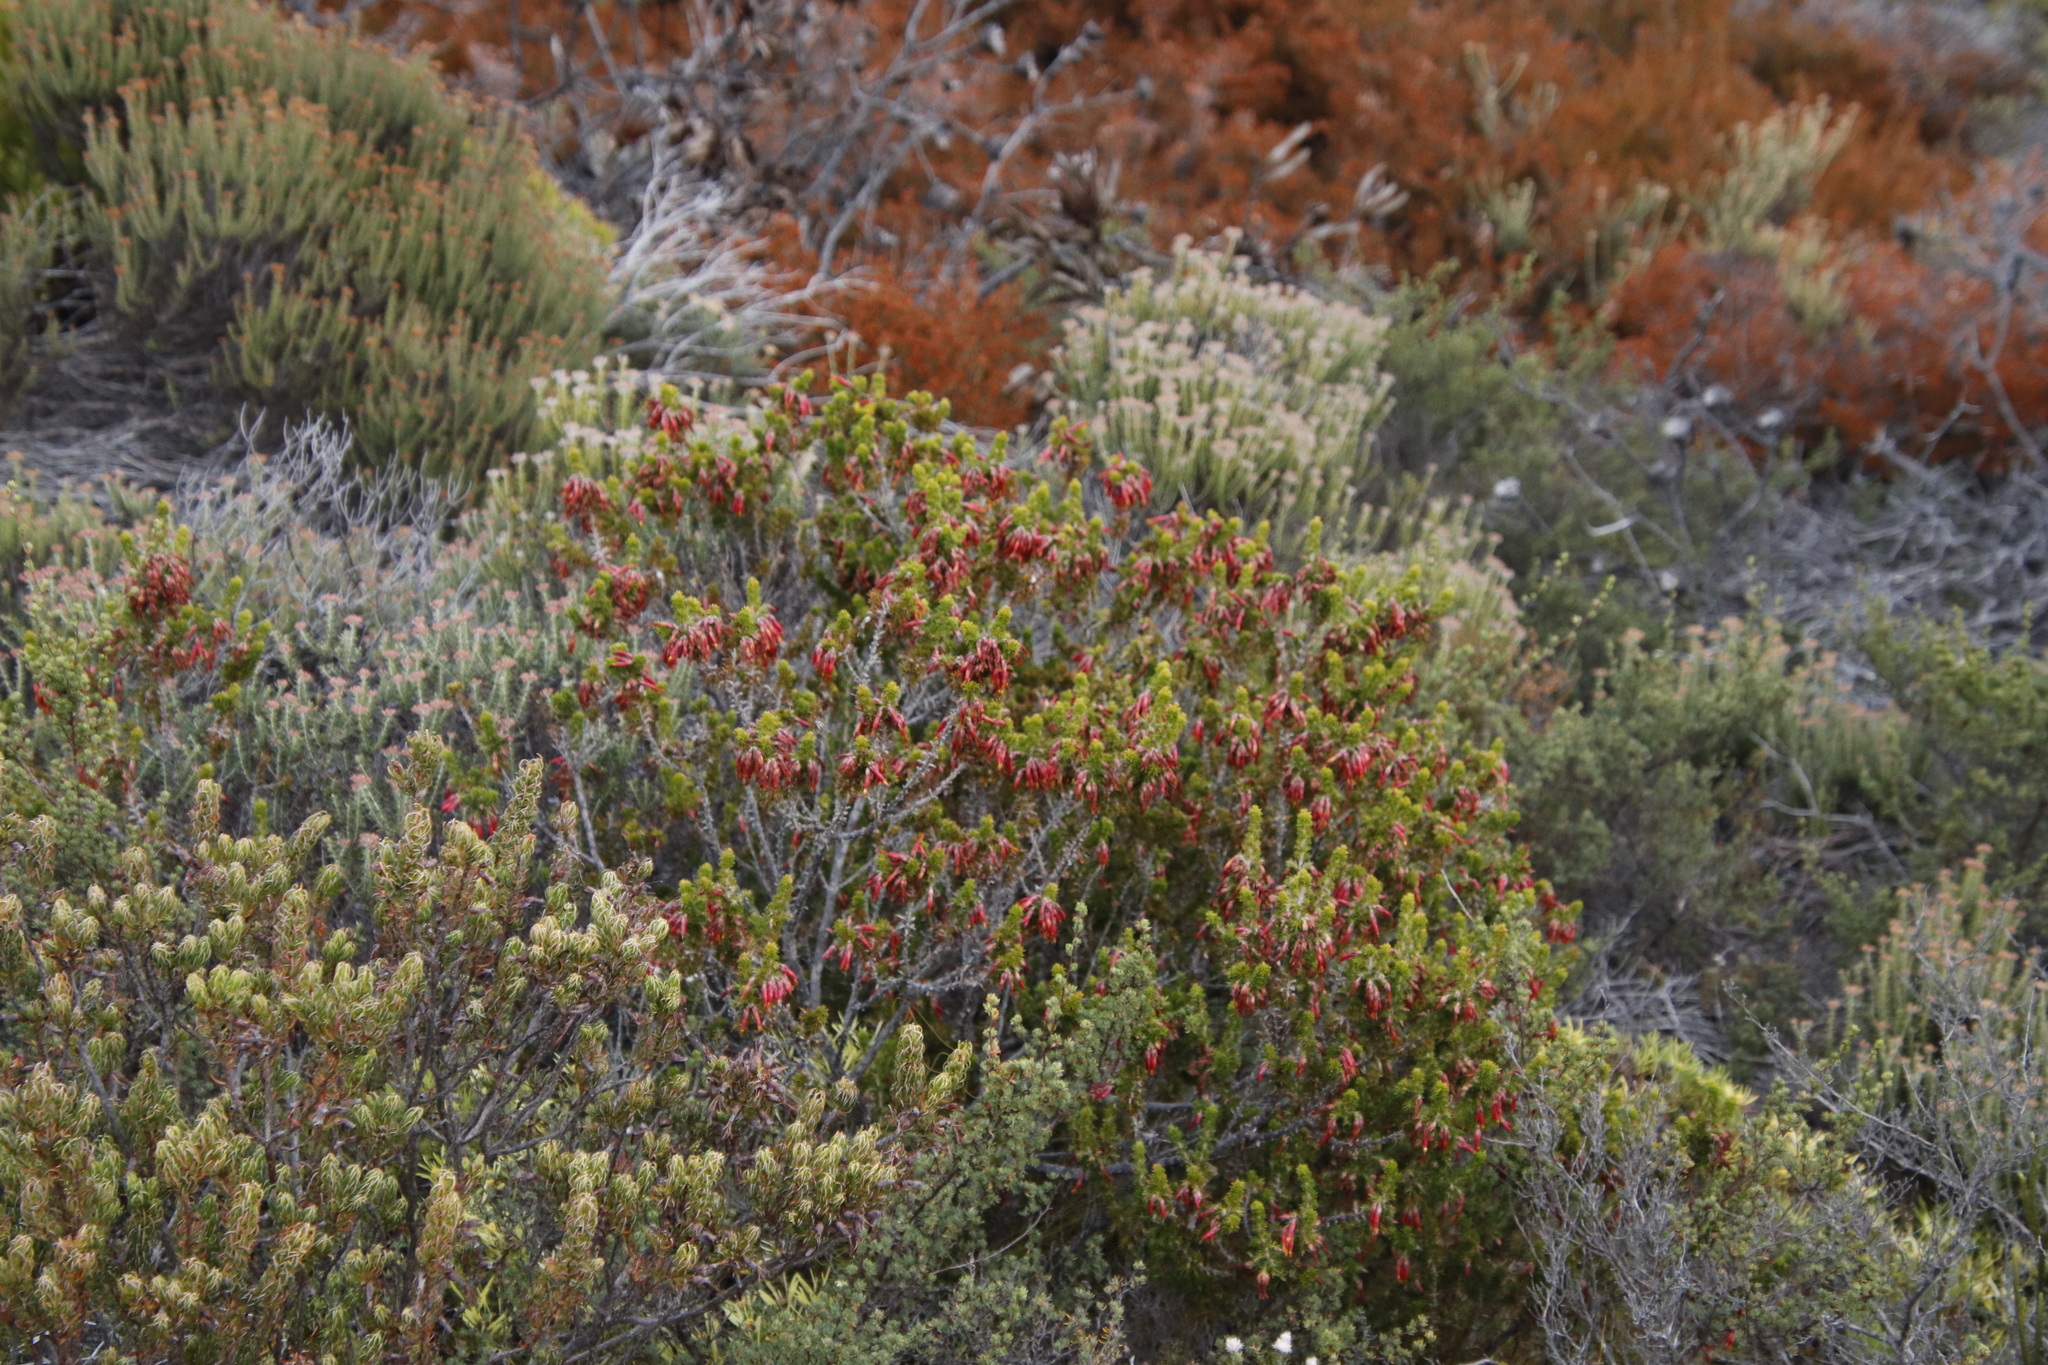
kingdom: Plantae
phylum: Tracheophyta
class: Magnoliopsida
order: Ericales
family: Ericaceae
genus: Erica
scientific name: Erica coccinea
